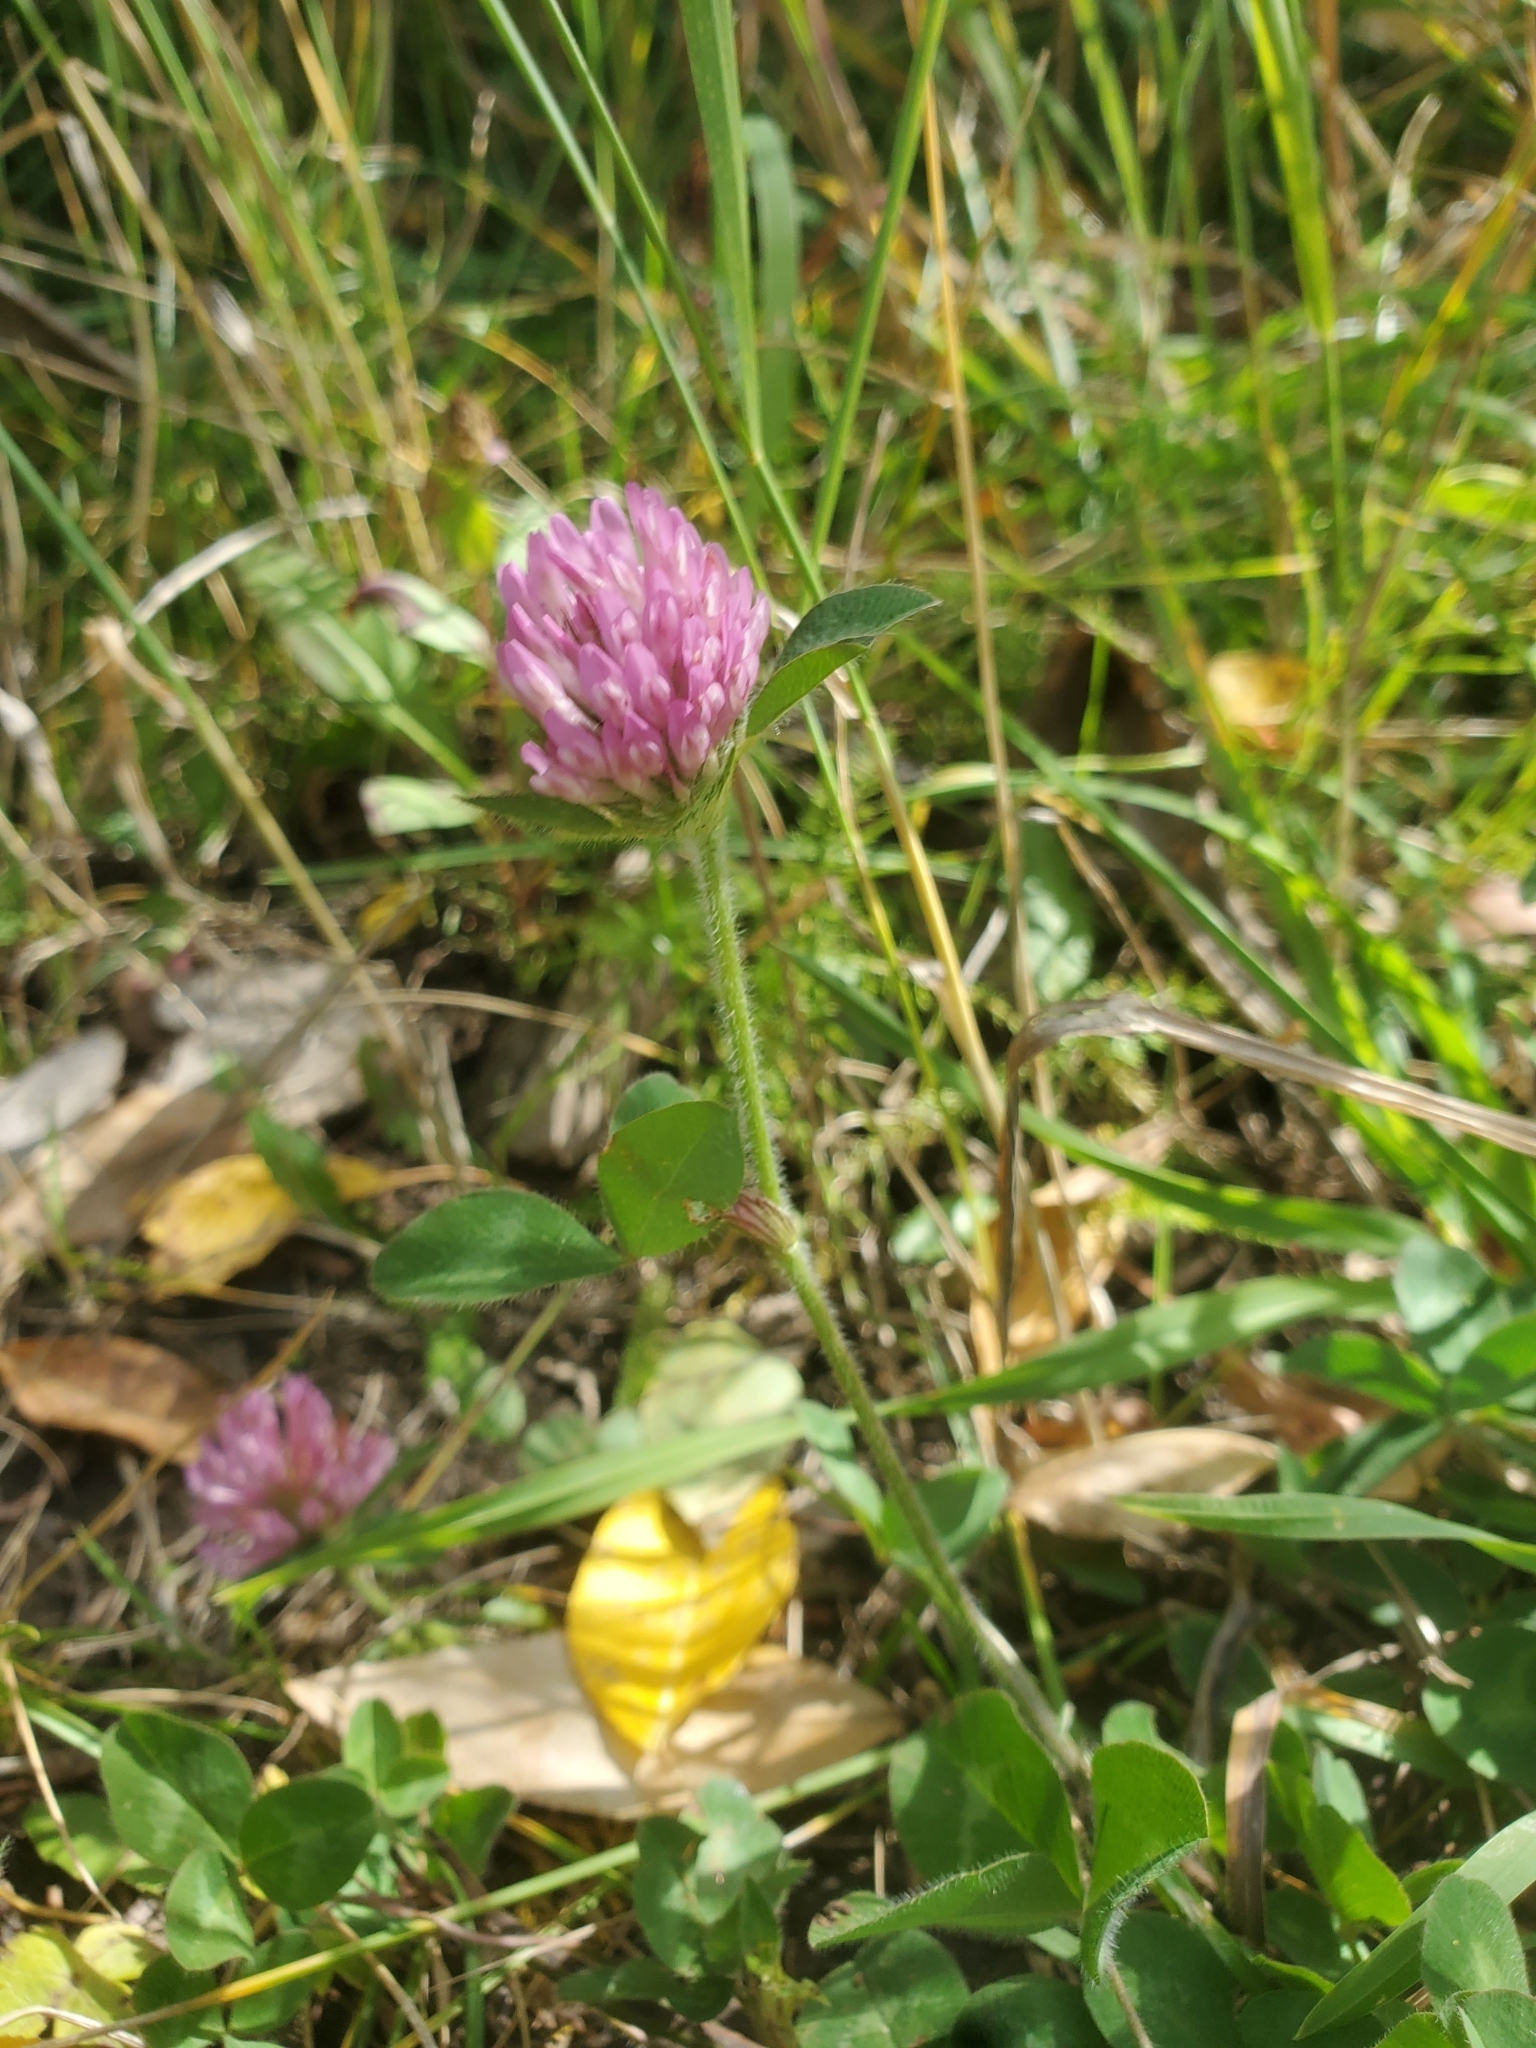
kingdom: Plantae
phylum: Tracheophyta
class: Magnoliopsida
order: Fabales
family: Fabaceae
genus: Trifolium
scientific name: Trifolium pratense
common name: Red clover
